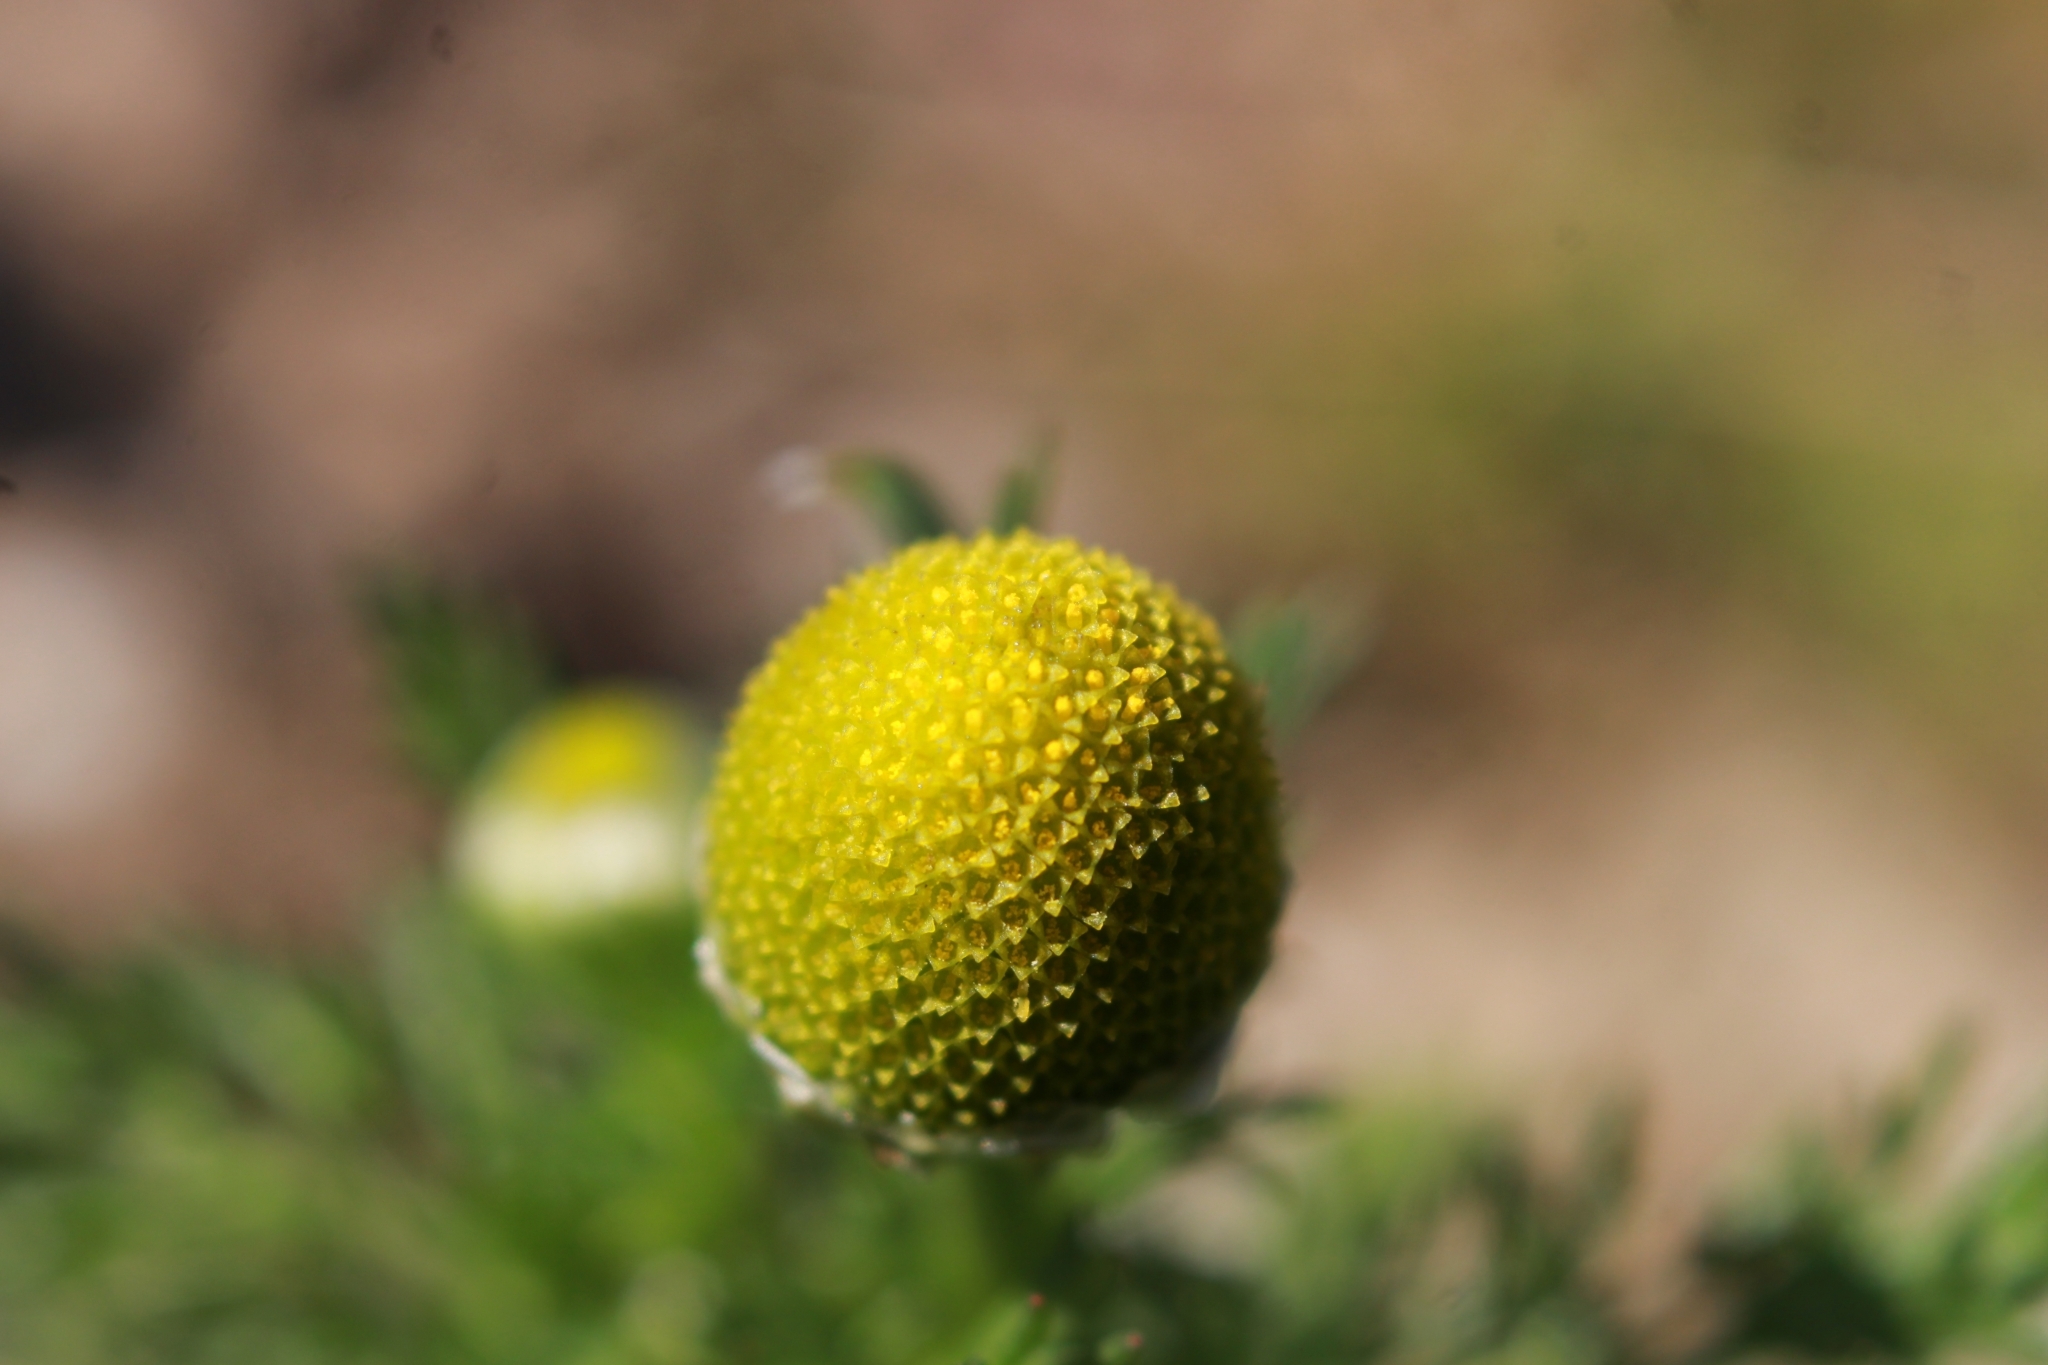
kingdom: Plantae
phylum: Tracheophyta
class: Magnoliopsida
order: Asterales
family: Asteraceae
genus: Matricaria
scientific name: Matricaria discoidea
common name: Disc mayweed
